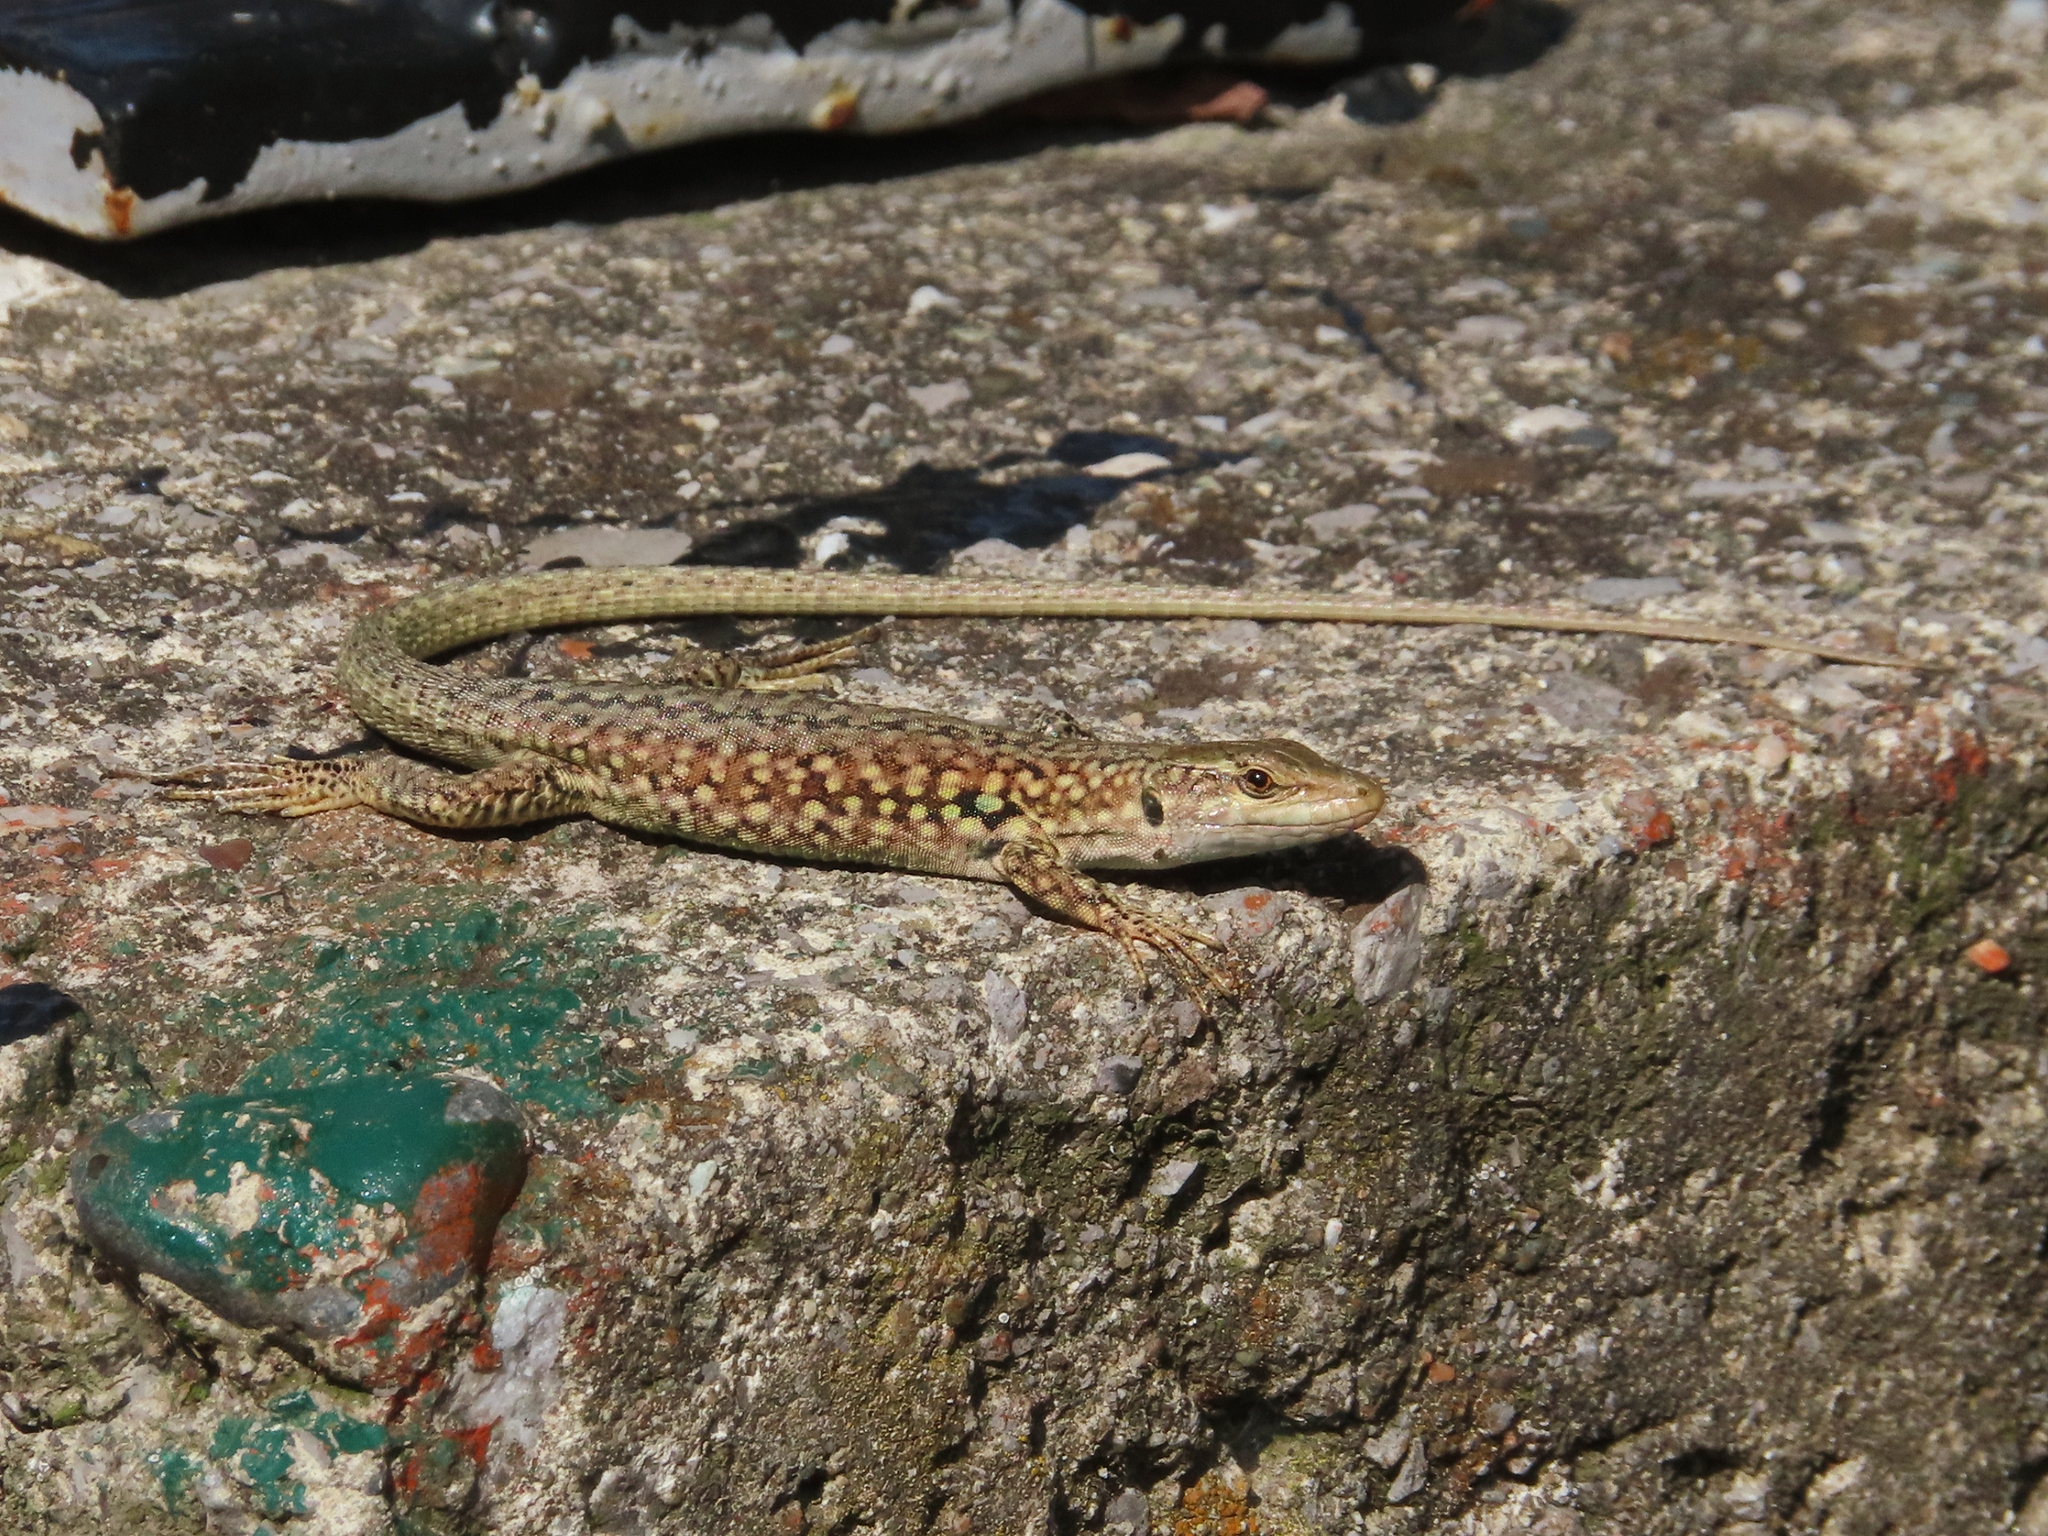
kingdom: Animalia
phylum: Chordata
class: Squamata
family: Lacertidae
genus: Podarcis
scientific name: Podarcis siculus
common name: Italian wall lizard
